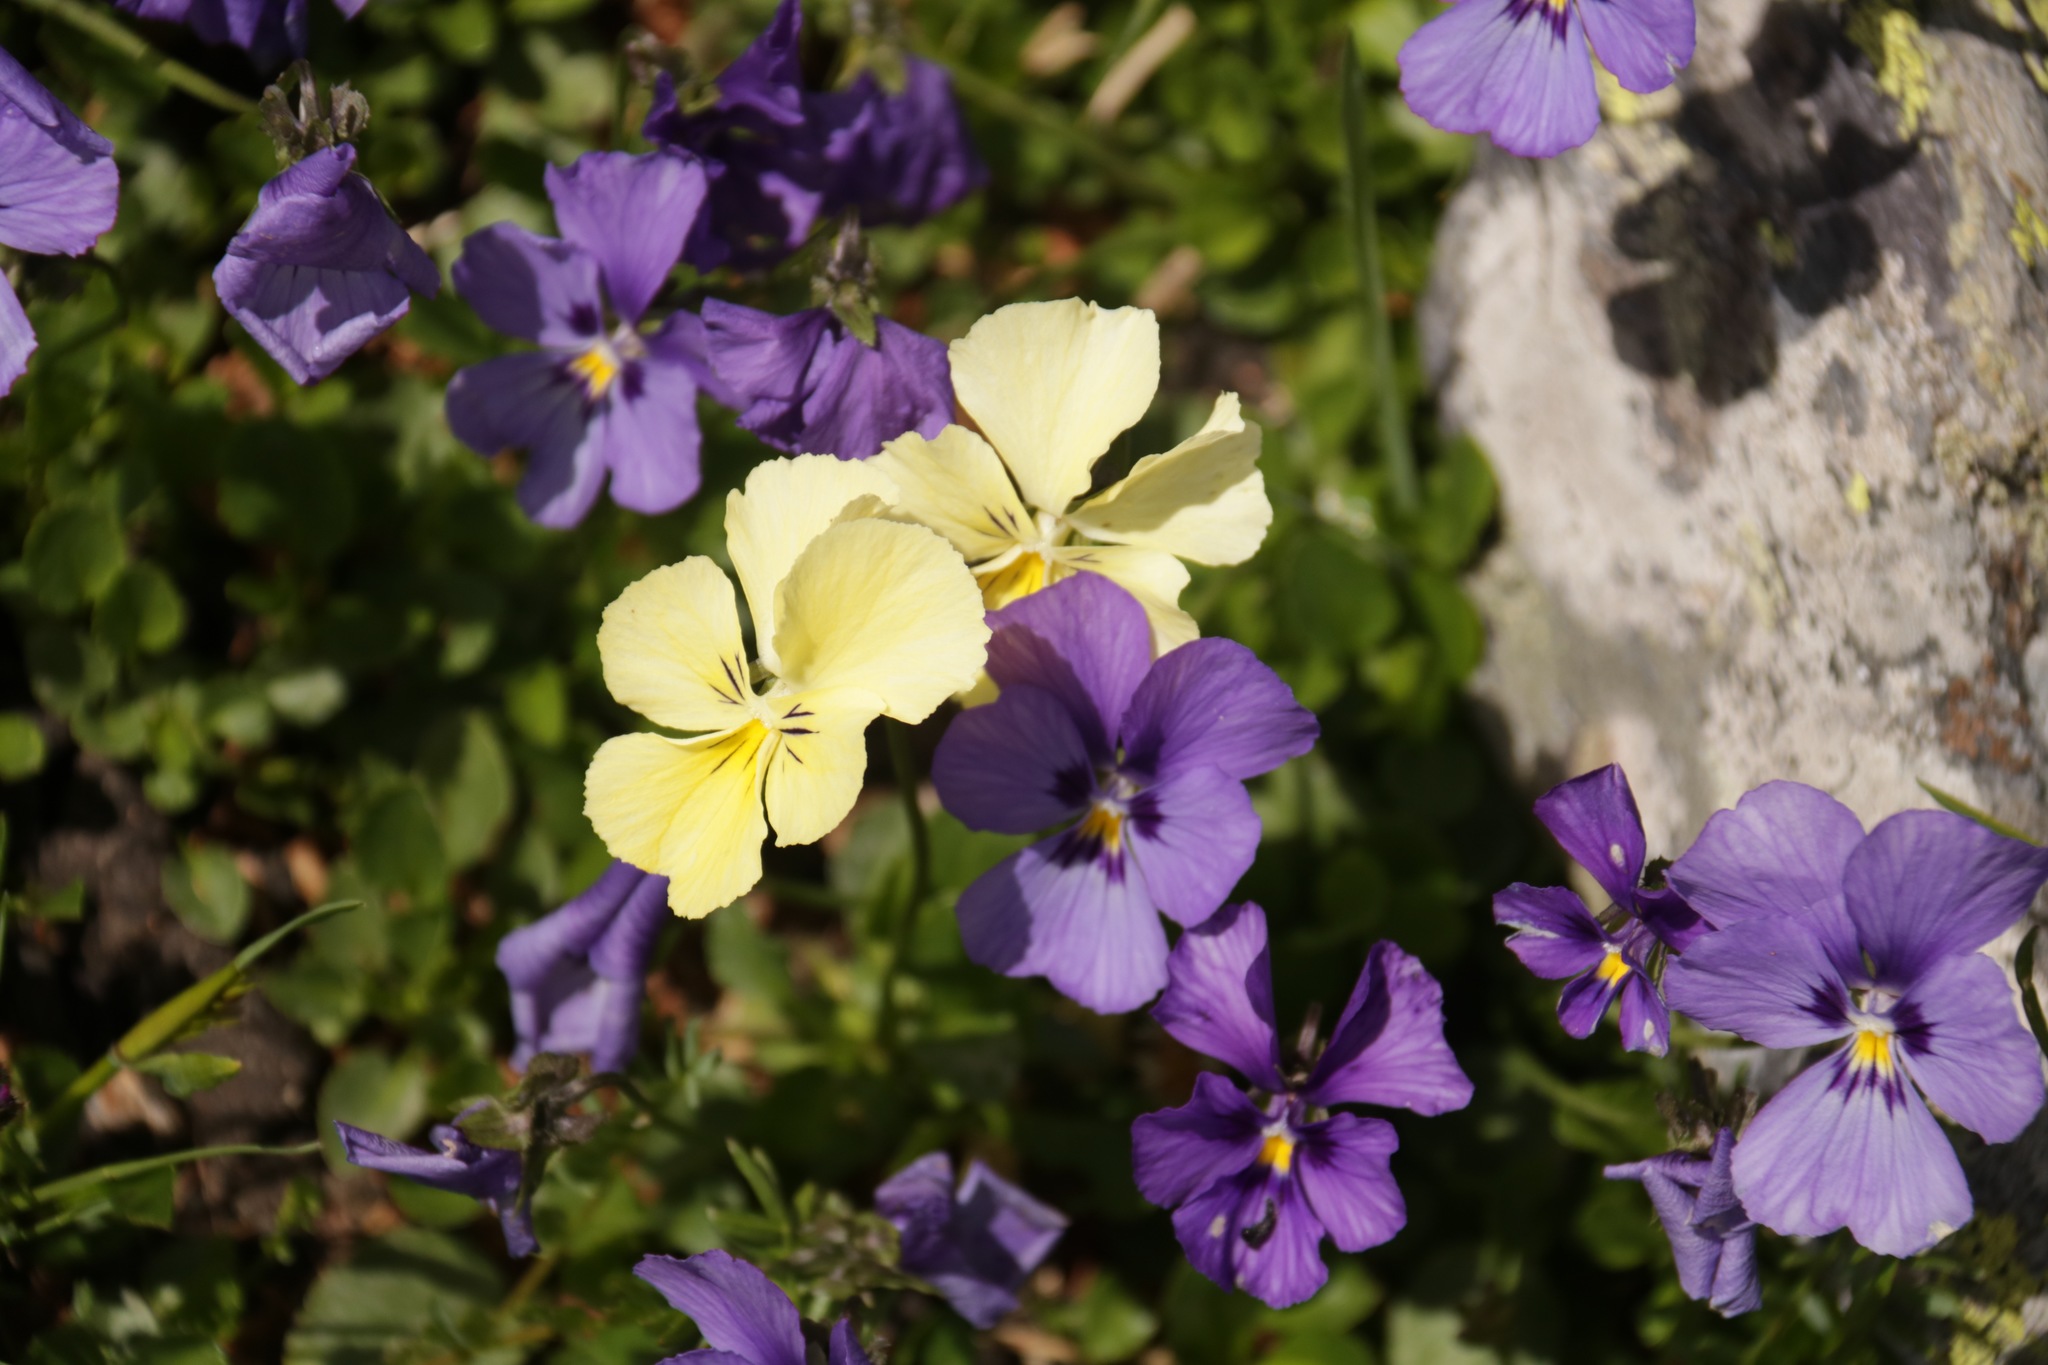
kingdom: Plantae
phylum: Tracheophyta
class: Magnoliopsida
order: Malpighiales
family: Violaceae
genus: Viola
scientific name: Viola altaica
